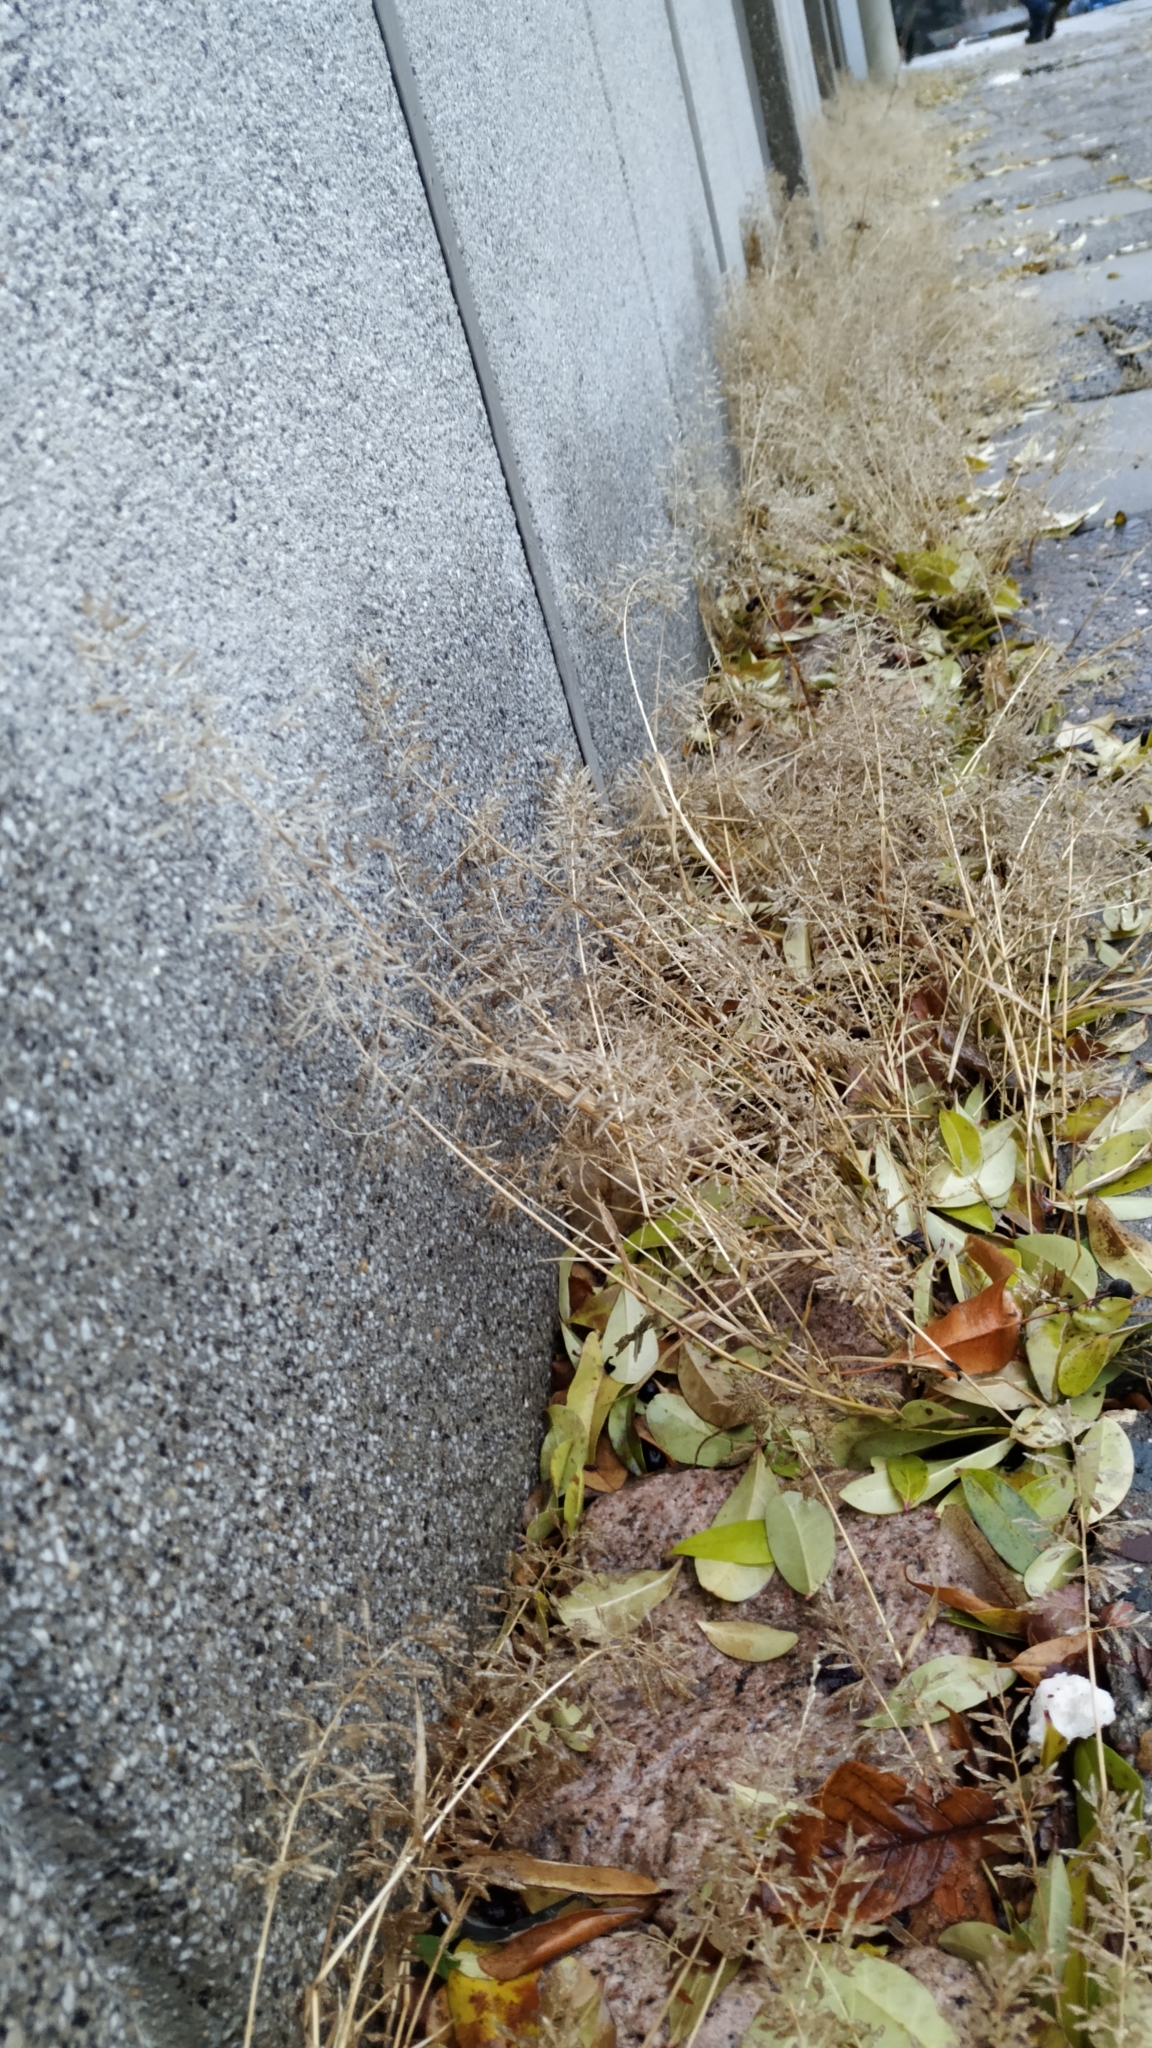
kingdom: Plantae
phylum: Tracheophyta
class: Liliopsida
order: Poales
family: Poaceae
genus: Eragrostis
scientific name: Eragrostis minor
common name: Small love-grass
